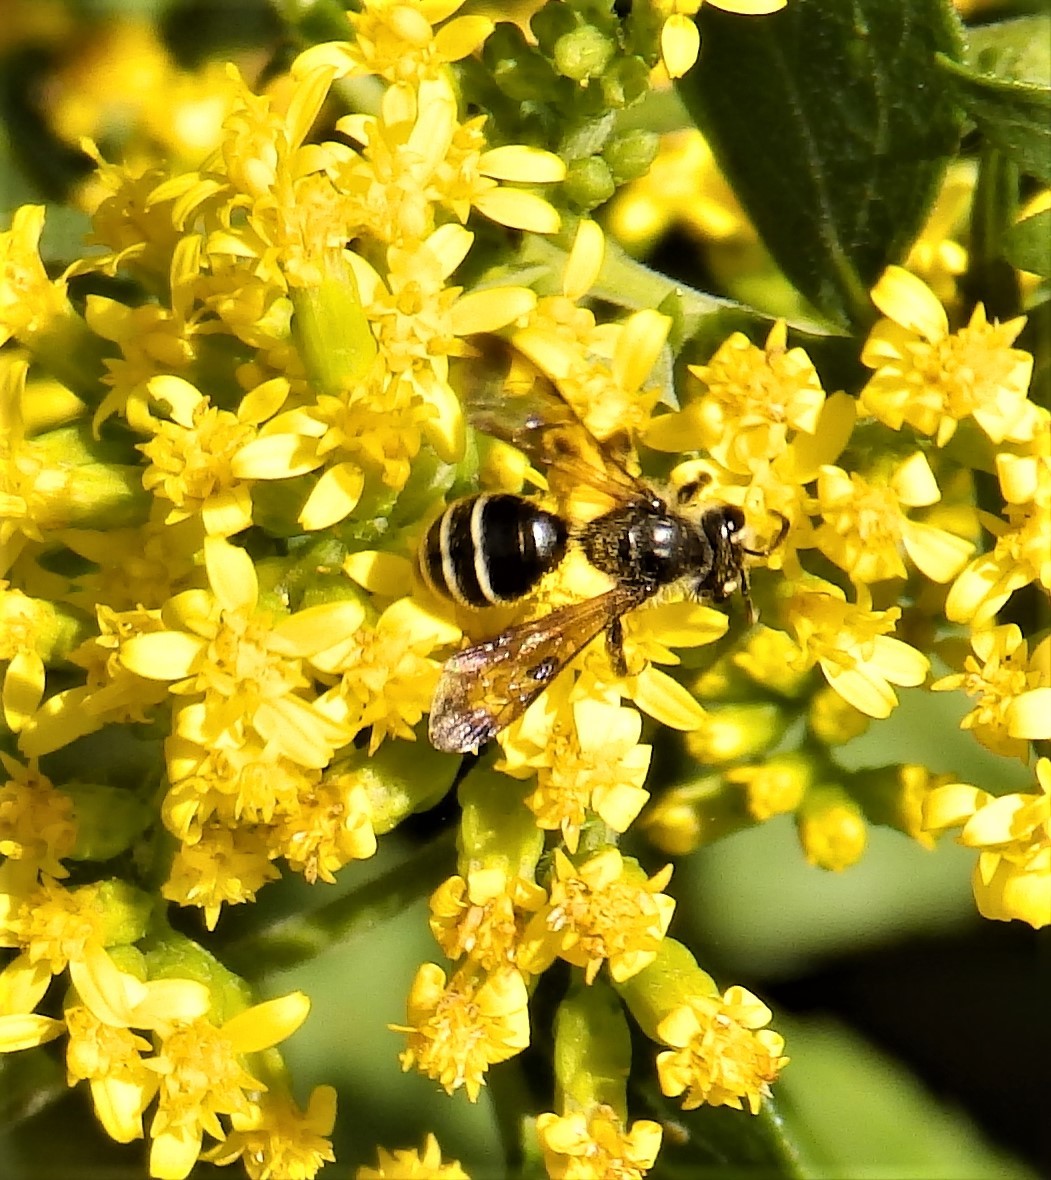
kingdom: Animalia
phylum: Arthropoda
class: Insecta
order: Hymenoptera
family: Andrenidae
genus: Andrena
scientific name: Andrena nubecula
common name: Cloudy-winged mining bee
